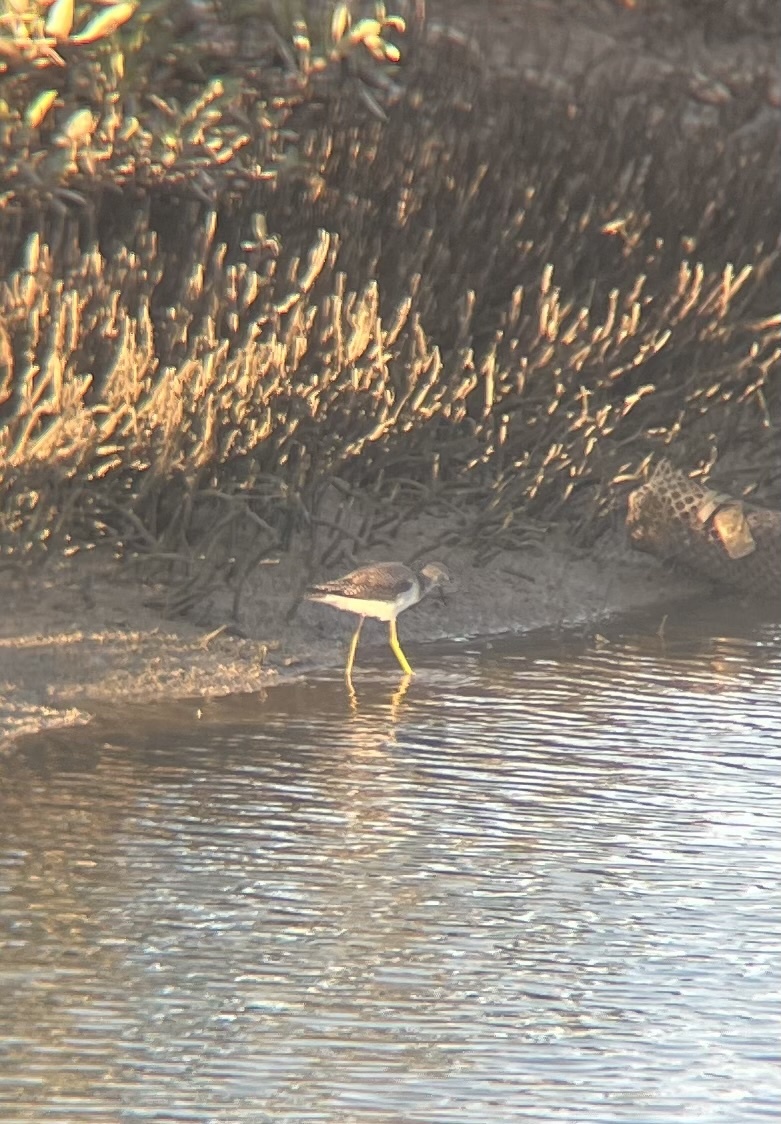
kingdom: Animalia
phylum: Chordata
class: Aves
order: Charadriiformes
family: Scolopacidae
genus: Tringa
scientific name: Tringa melanoleuca
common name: Greater yellowlegs
